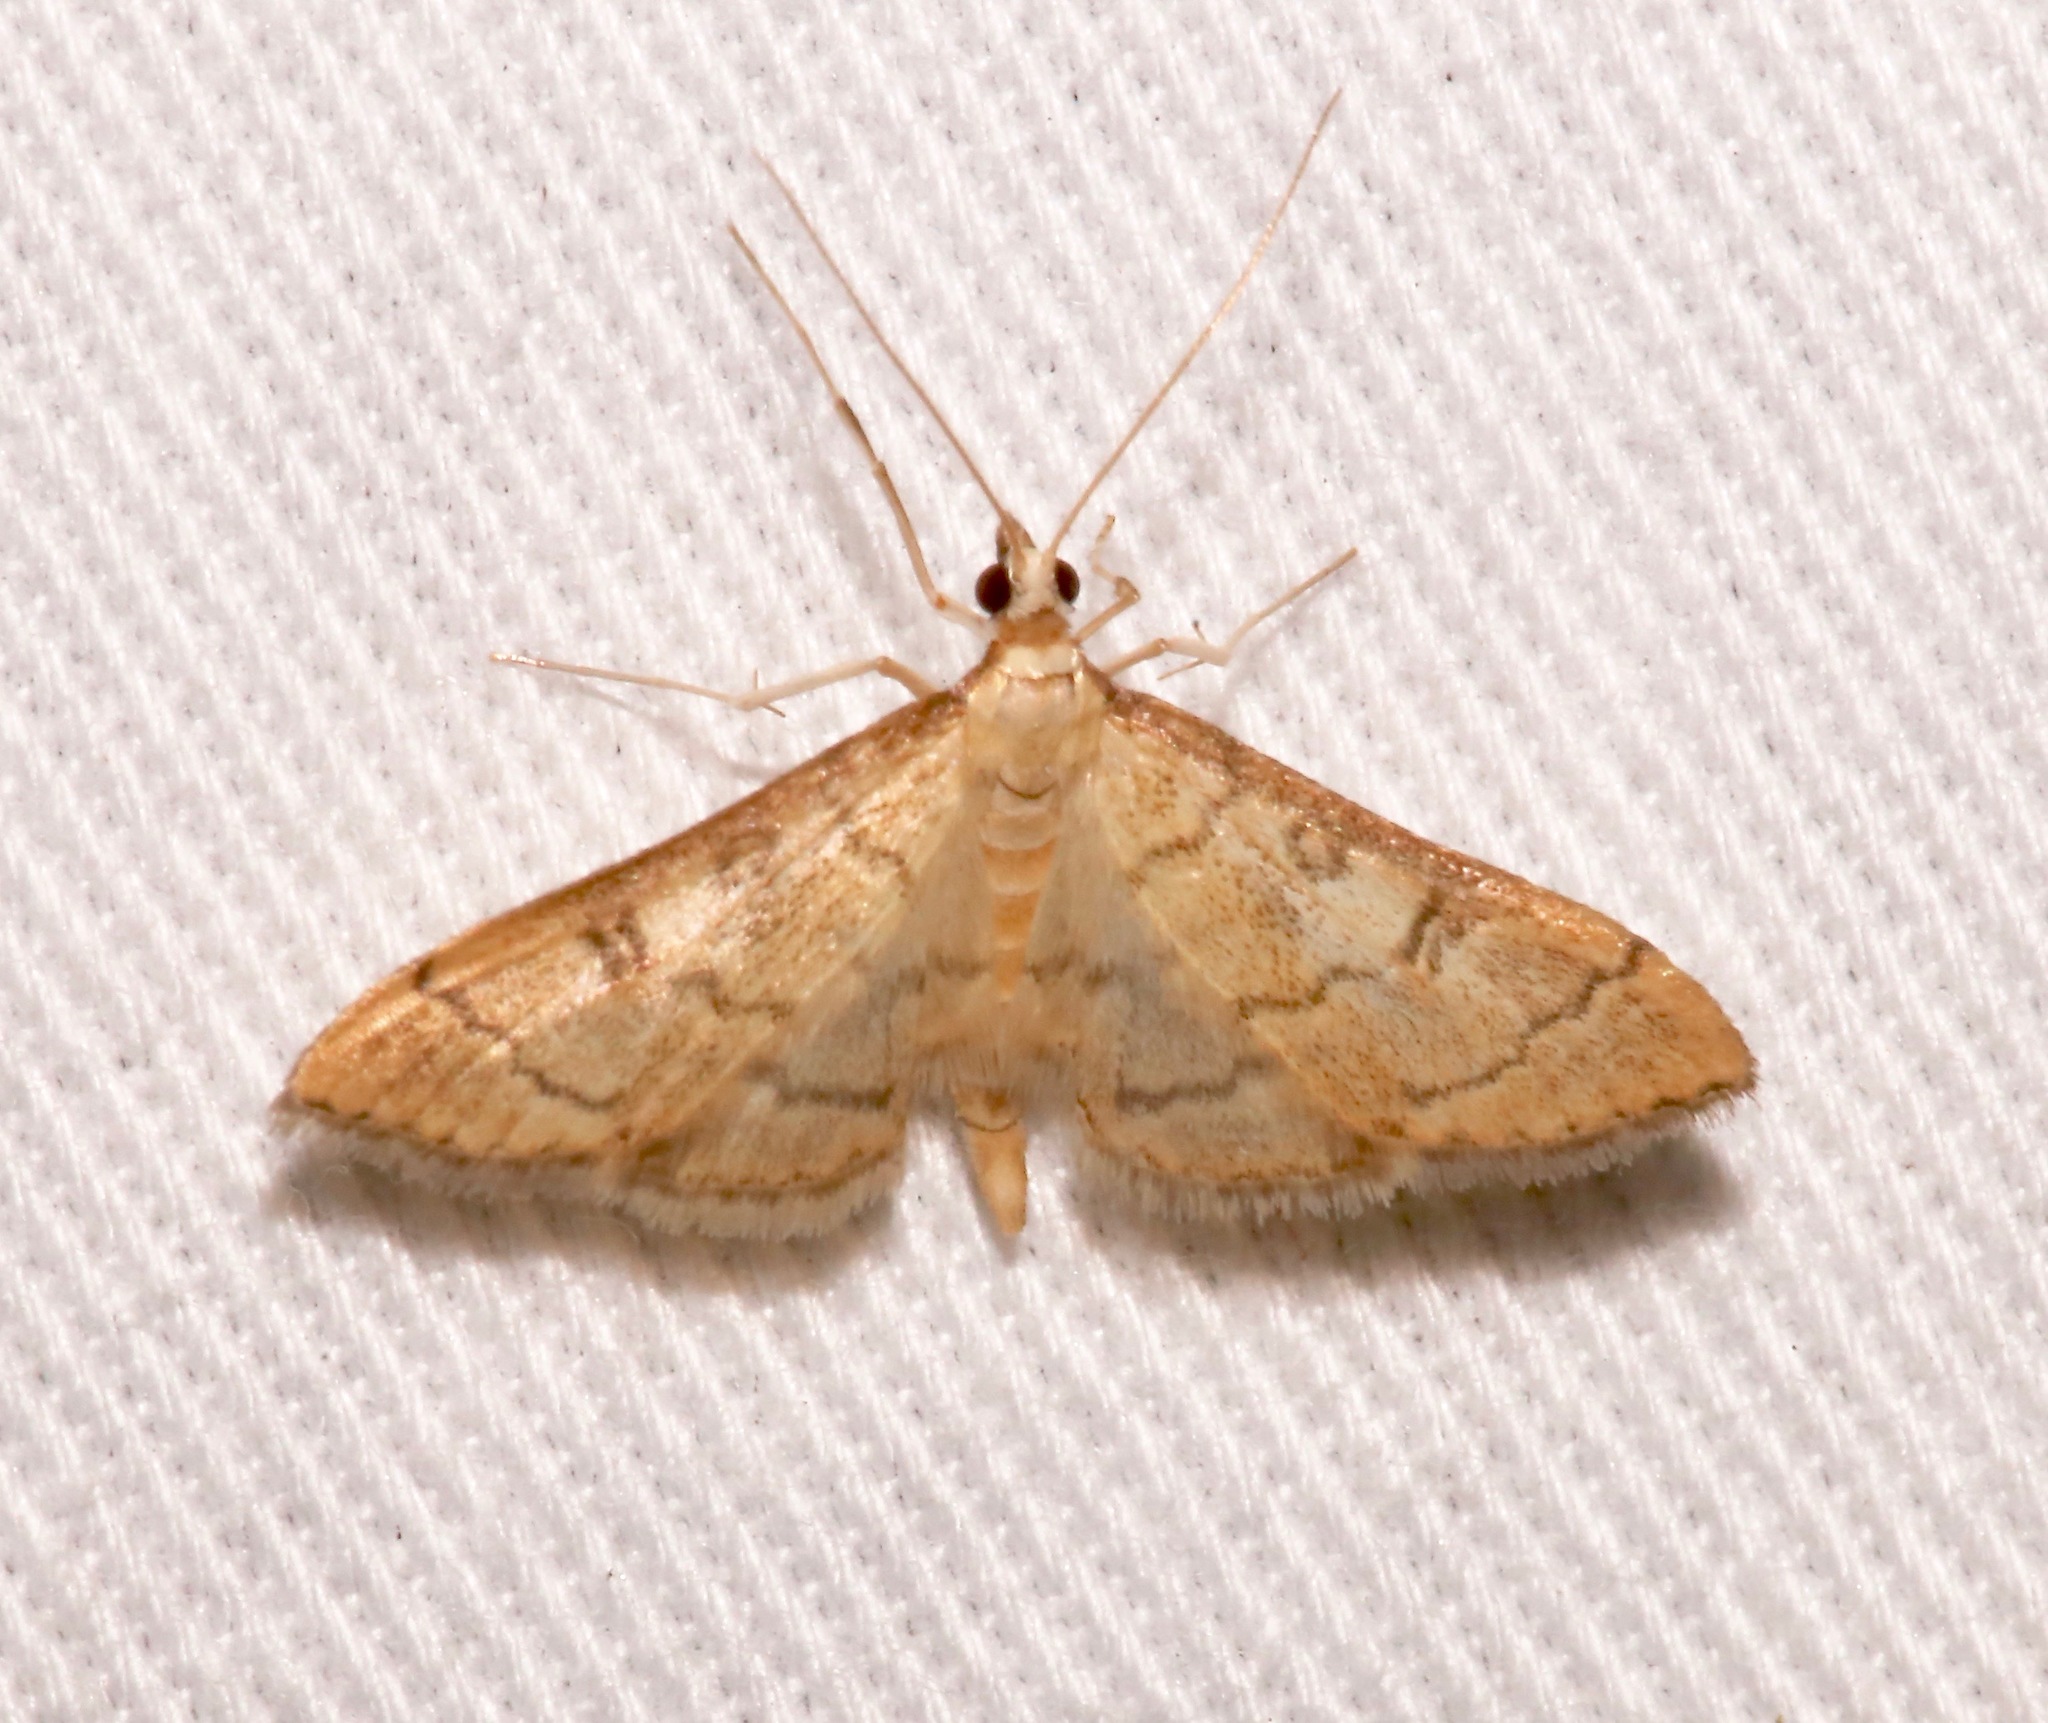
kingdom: Animalia
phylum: Arthropoda
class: Insecta
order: Lepidoptera
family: Crambidae
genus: Lamprosema
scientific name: Lamprosema Blepharomastix ranalis
